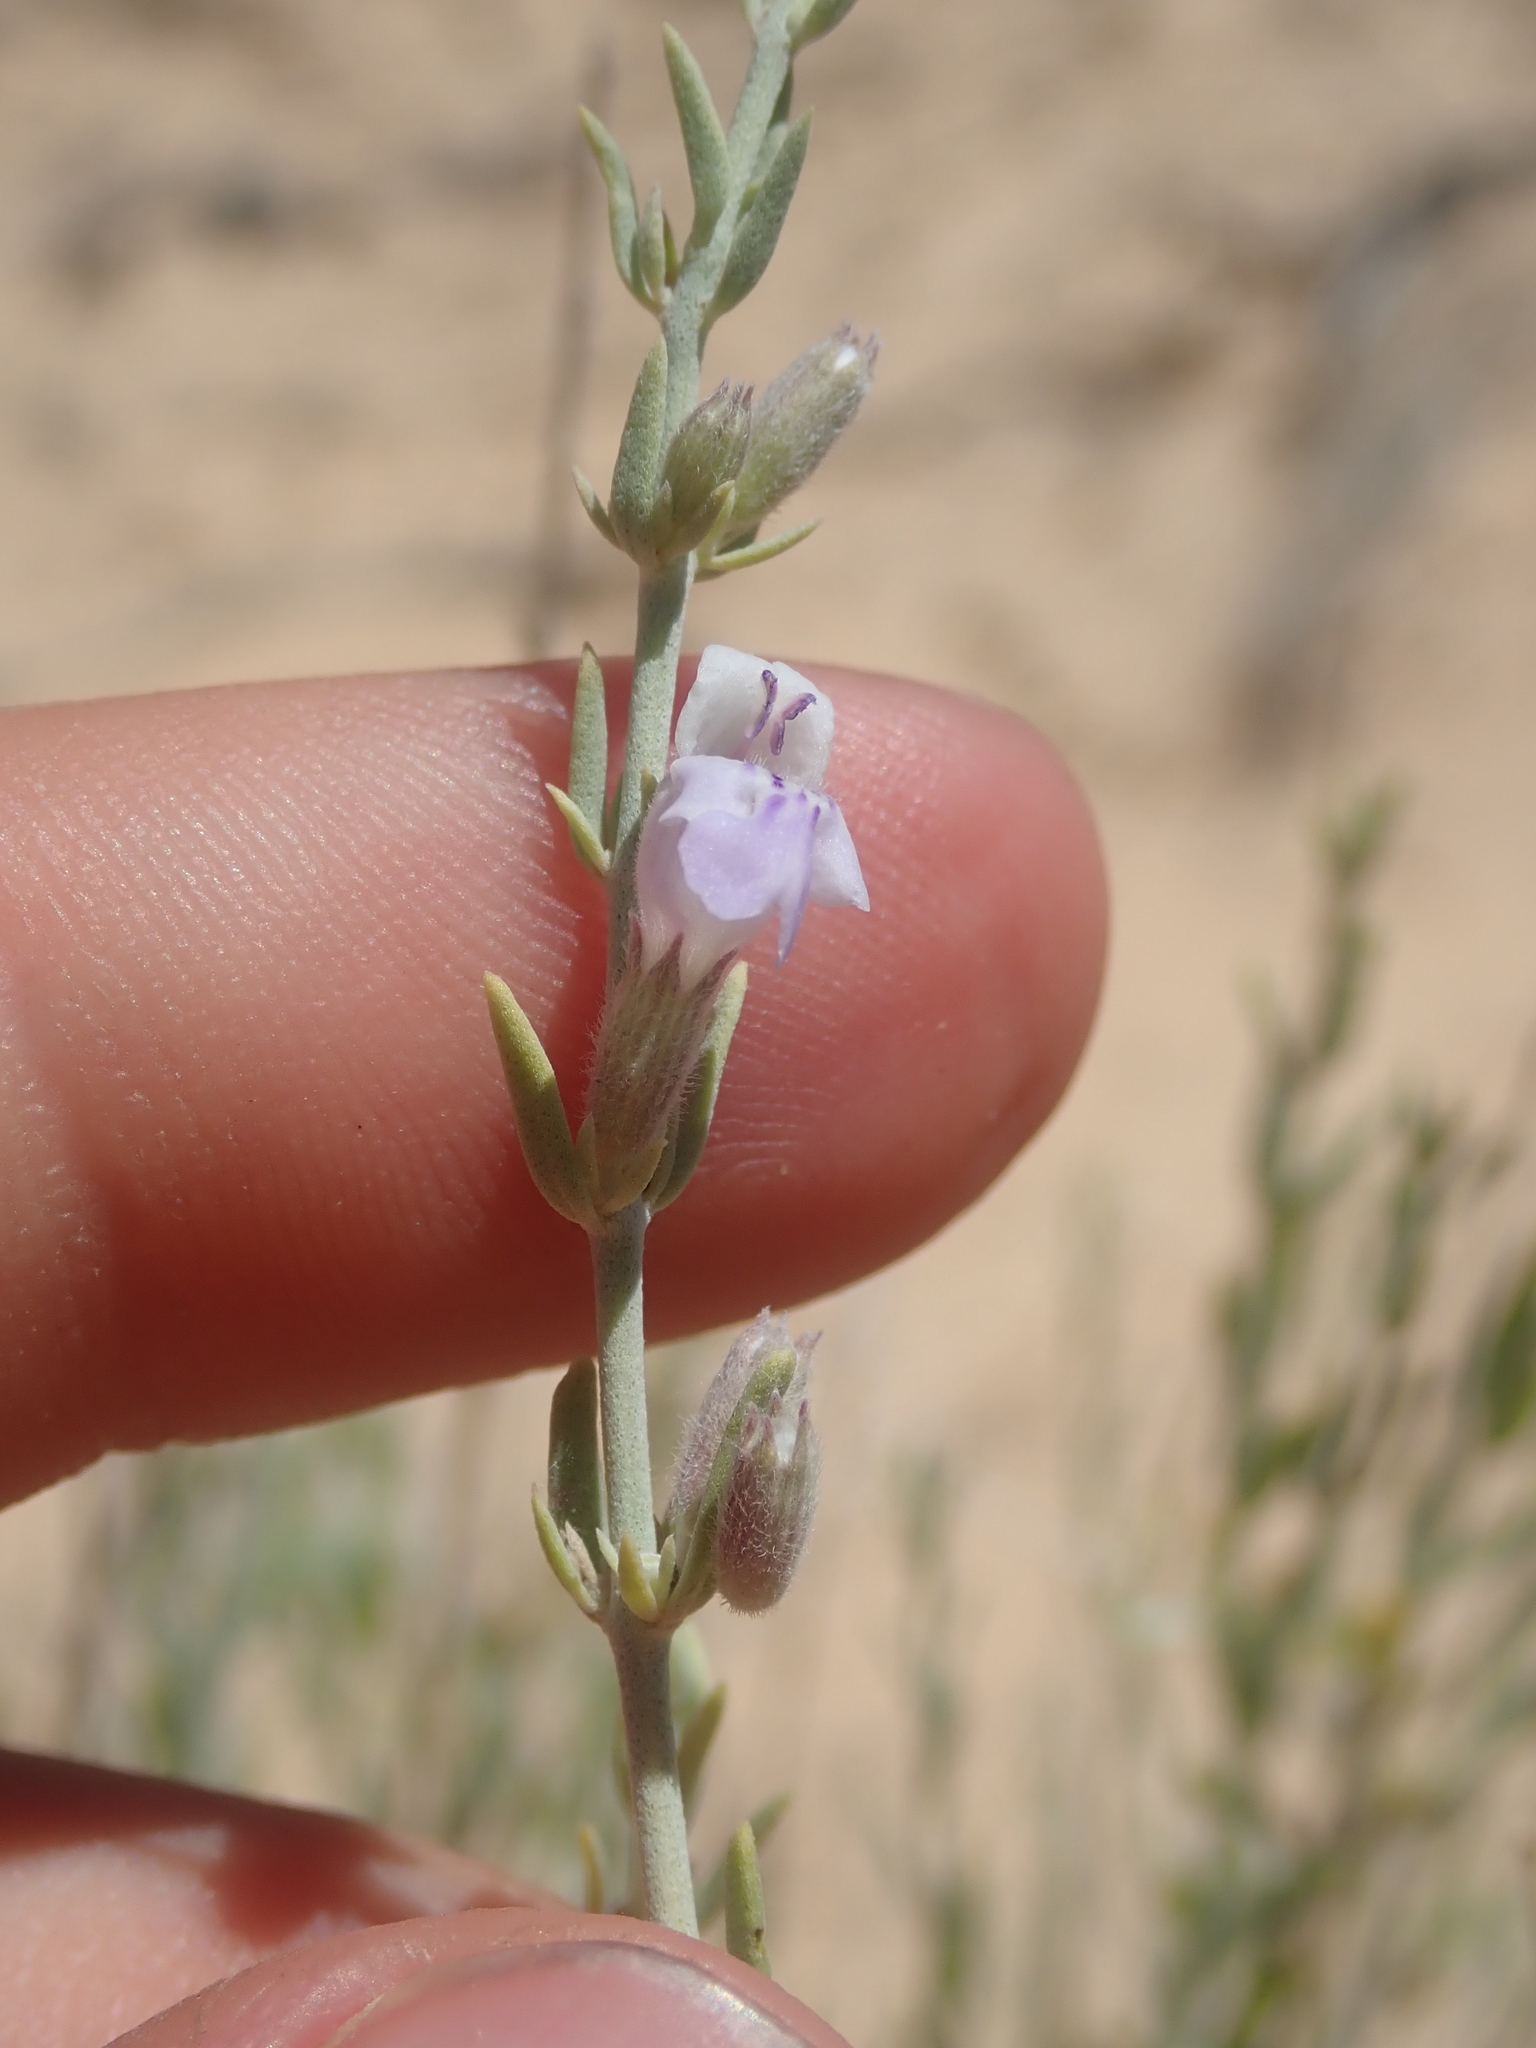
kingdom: Plantae
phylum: Tracheophyta
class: Magnoliopsida
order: Lamiales
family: Lamiaceae
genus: Poliomintha
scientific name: Poliomintha incana
